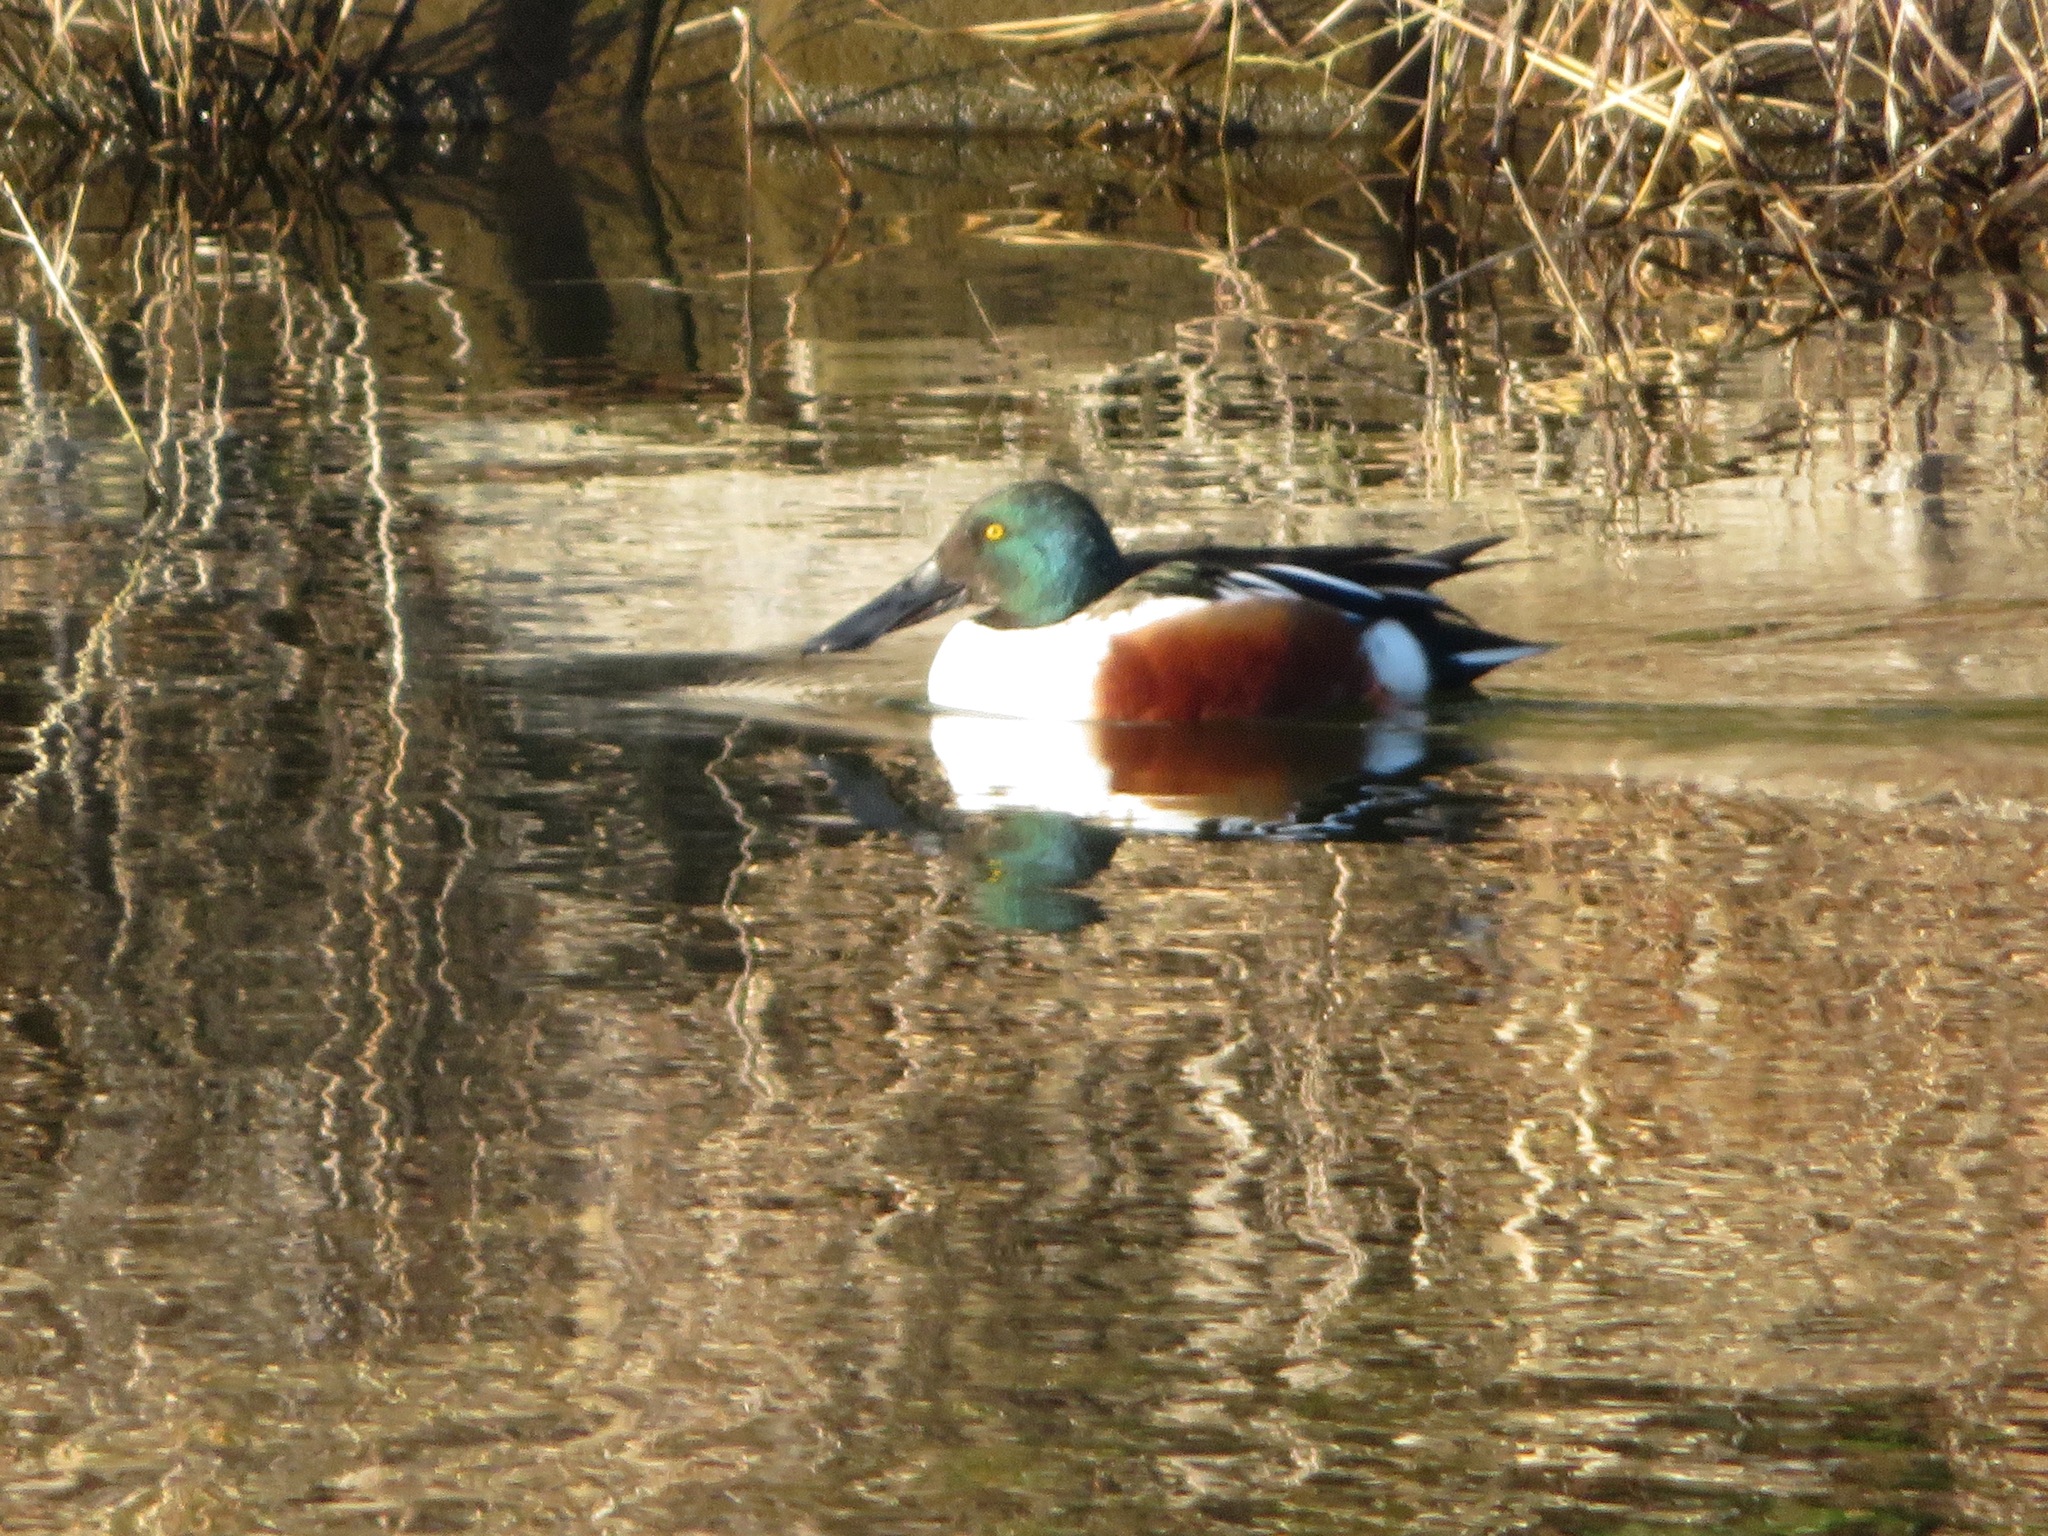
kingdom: Animalia
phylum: Chordata
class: Aves
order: Anseriformes
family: Anatidae
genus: Spatula
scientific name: Spatula clypeata
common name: Northern shoveler
